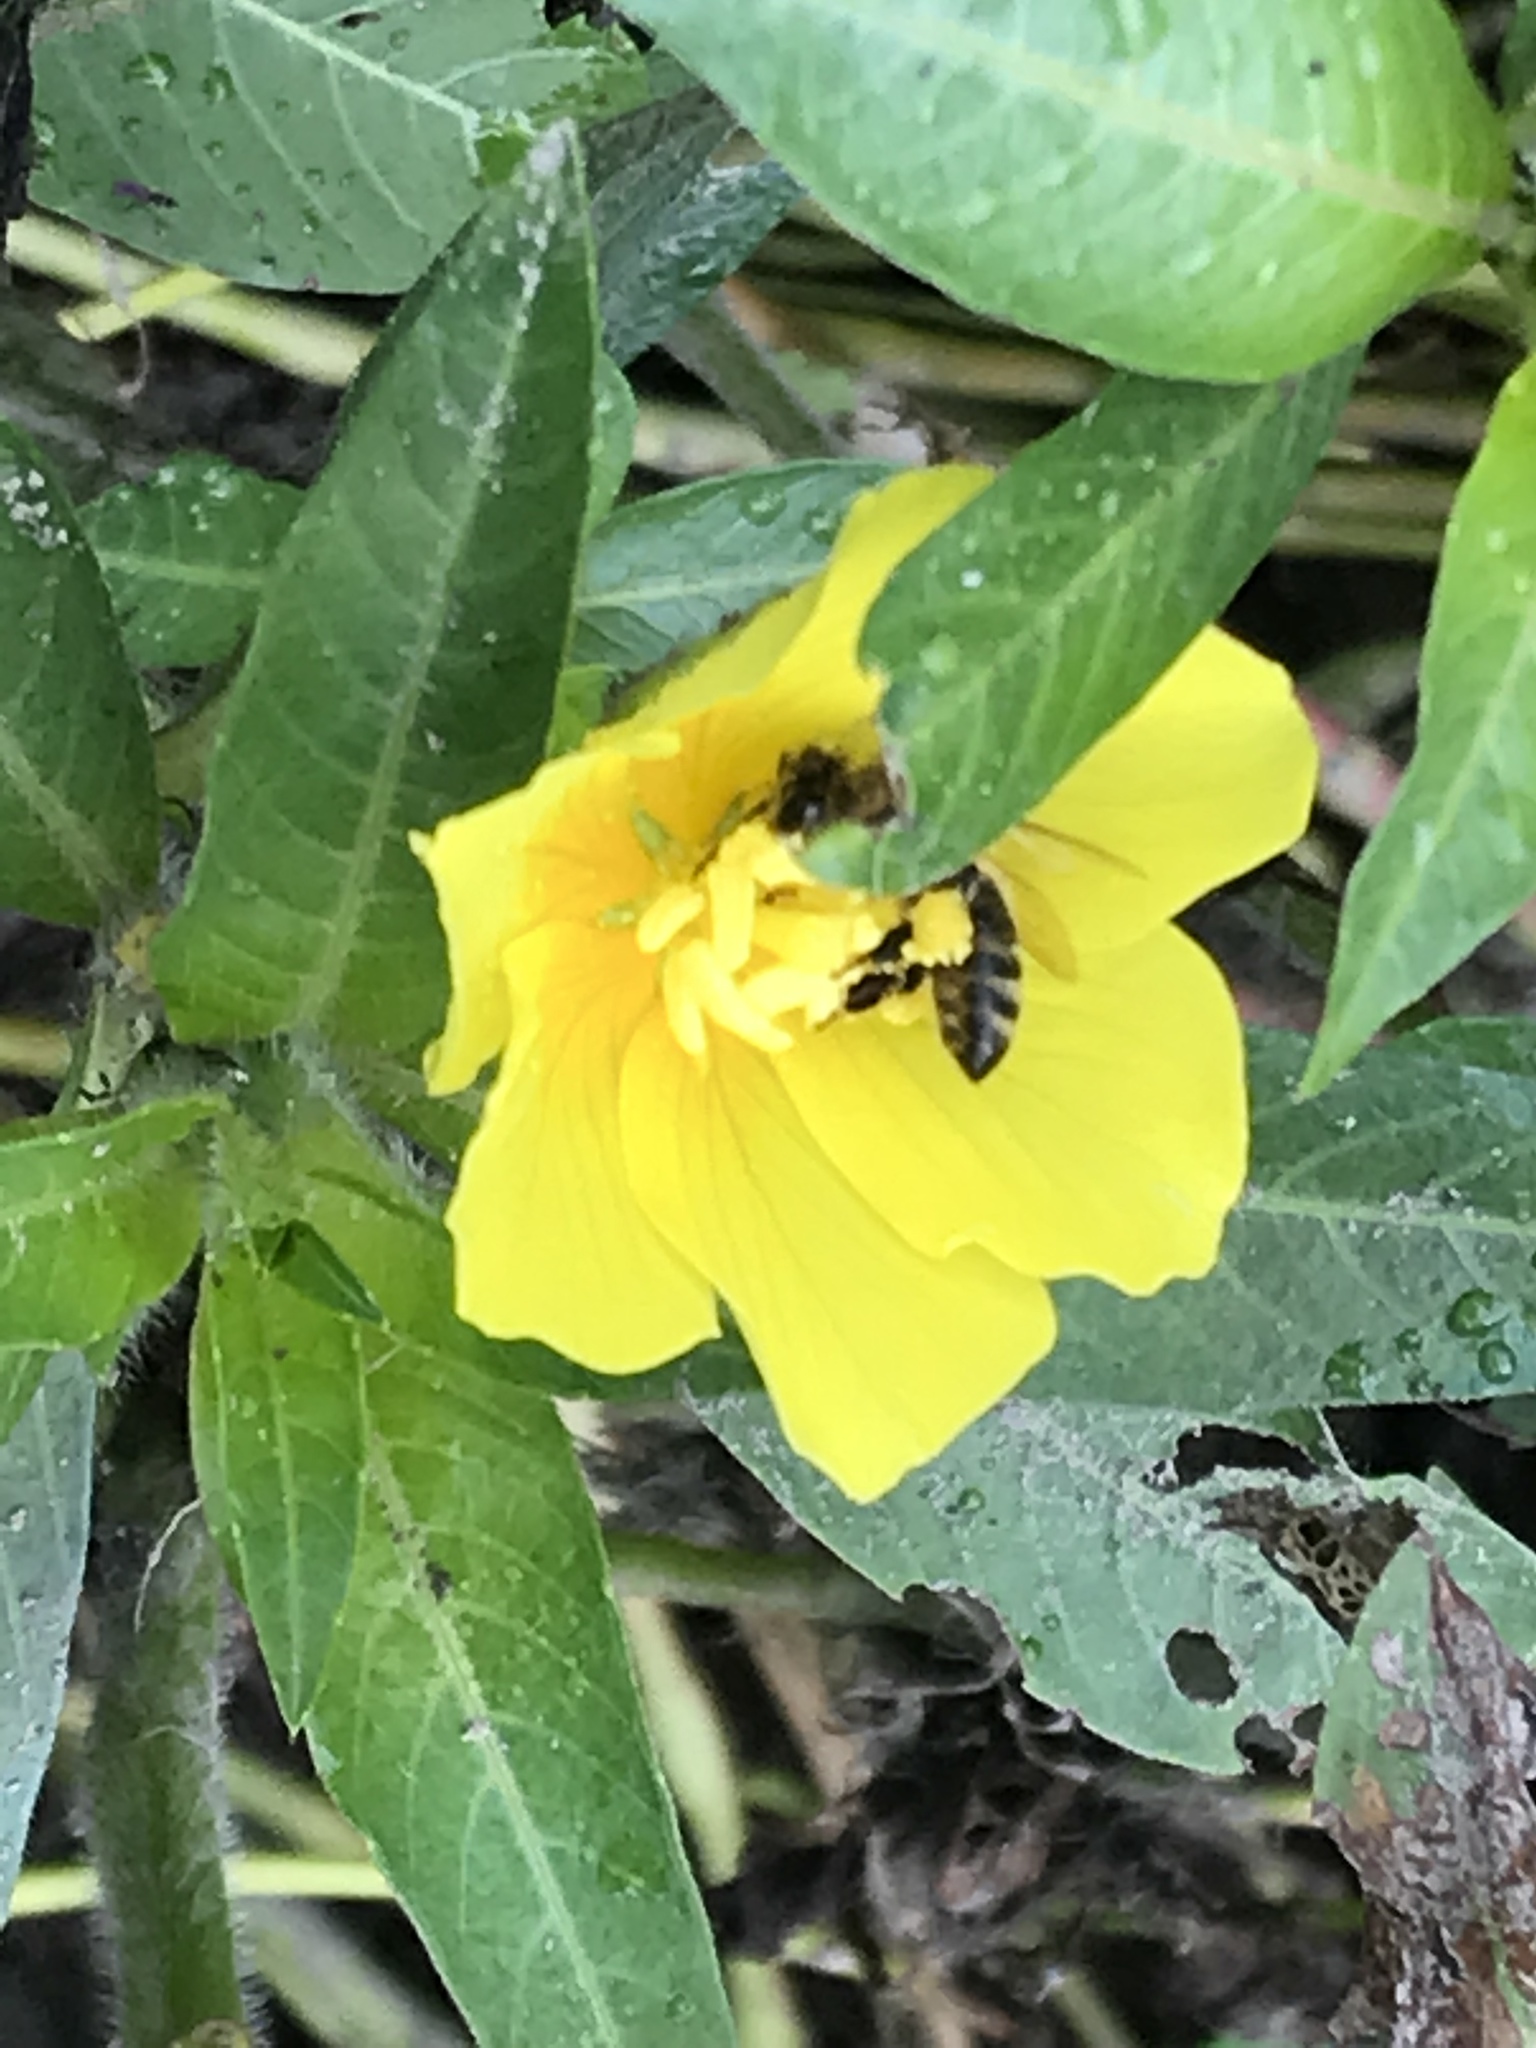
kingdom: Plantae
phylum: Tracheophyta
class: Magnoliopsida
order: Myrtales
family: Onagraceae
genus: Ludwigia
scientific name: Ludwigia peploides
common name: Floating primrose-willow
